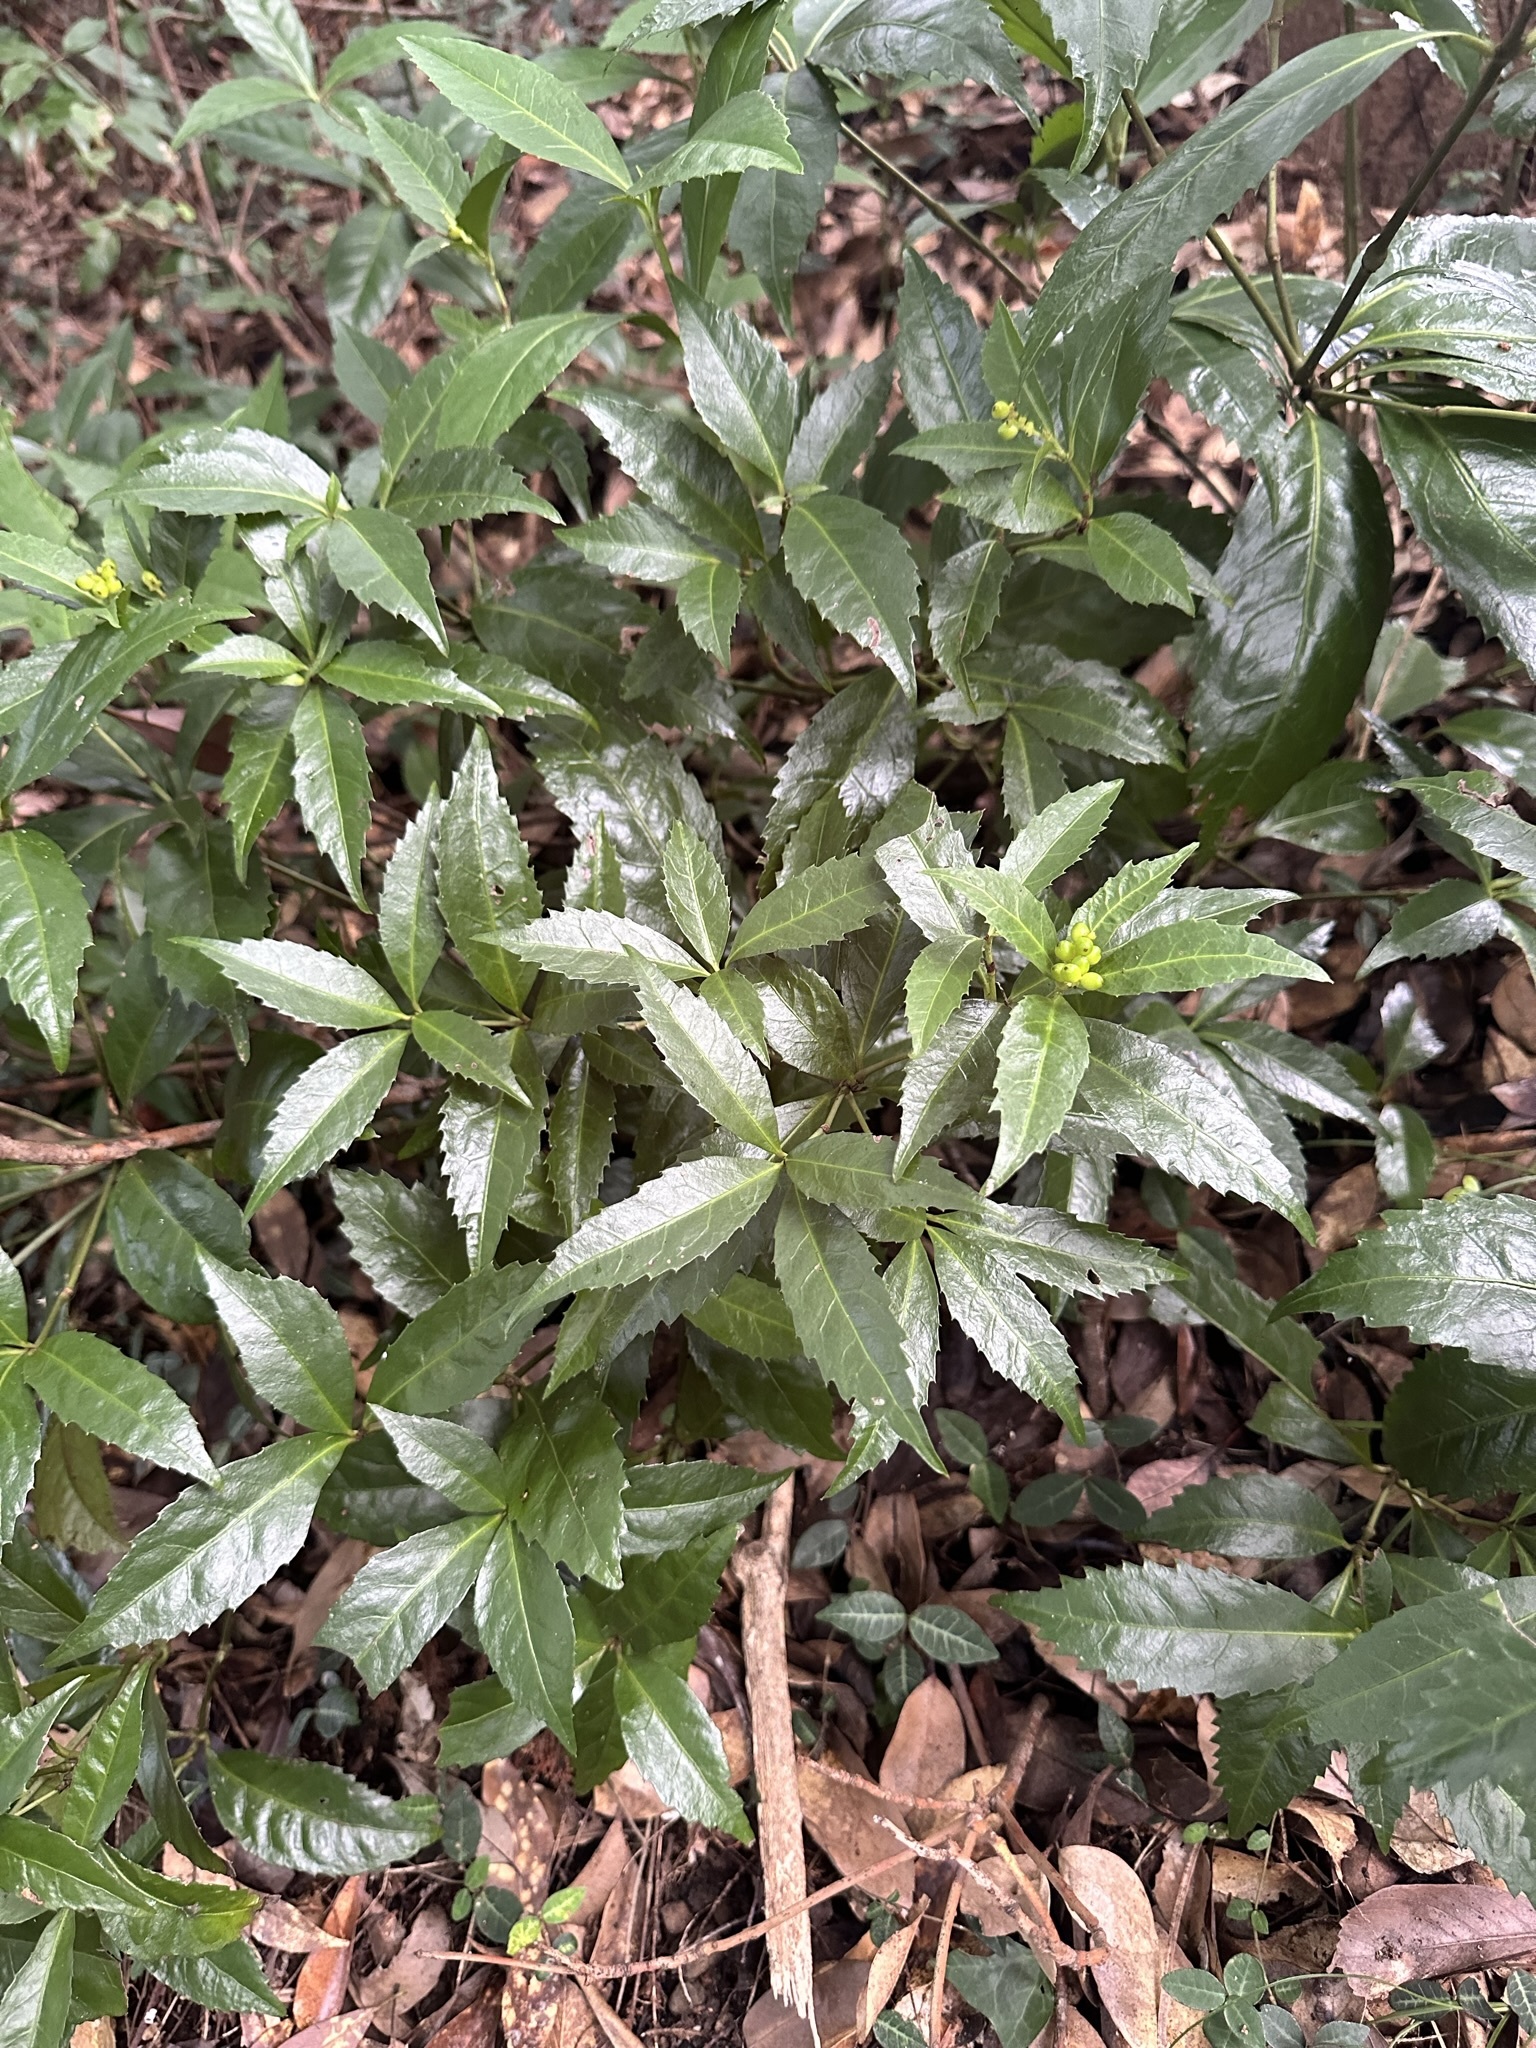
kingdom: Plantae
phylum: Tracheophyta
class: Magnoliopsida
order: Chloranthales
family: Chloranthaceae
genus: Sarcandra
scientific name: Sarcandra glabra
